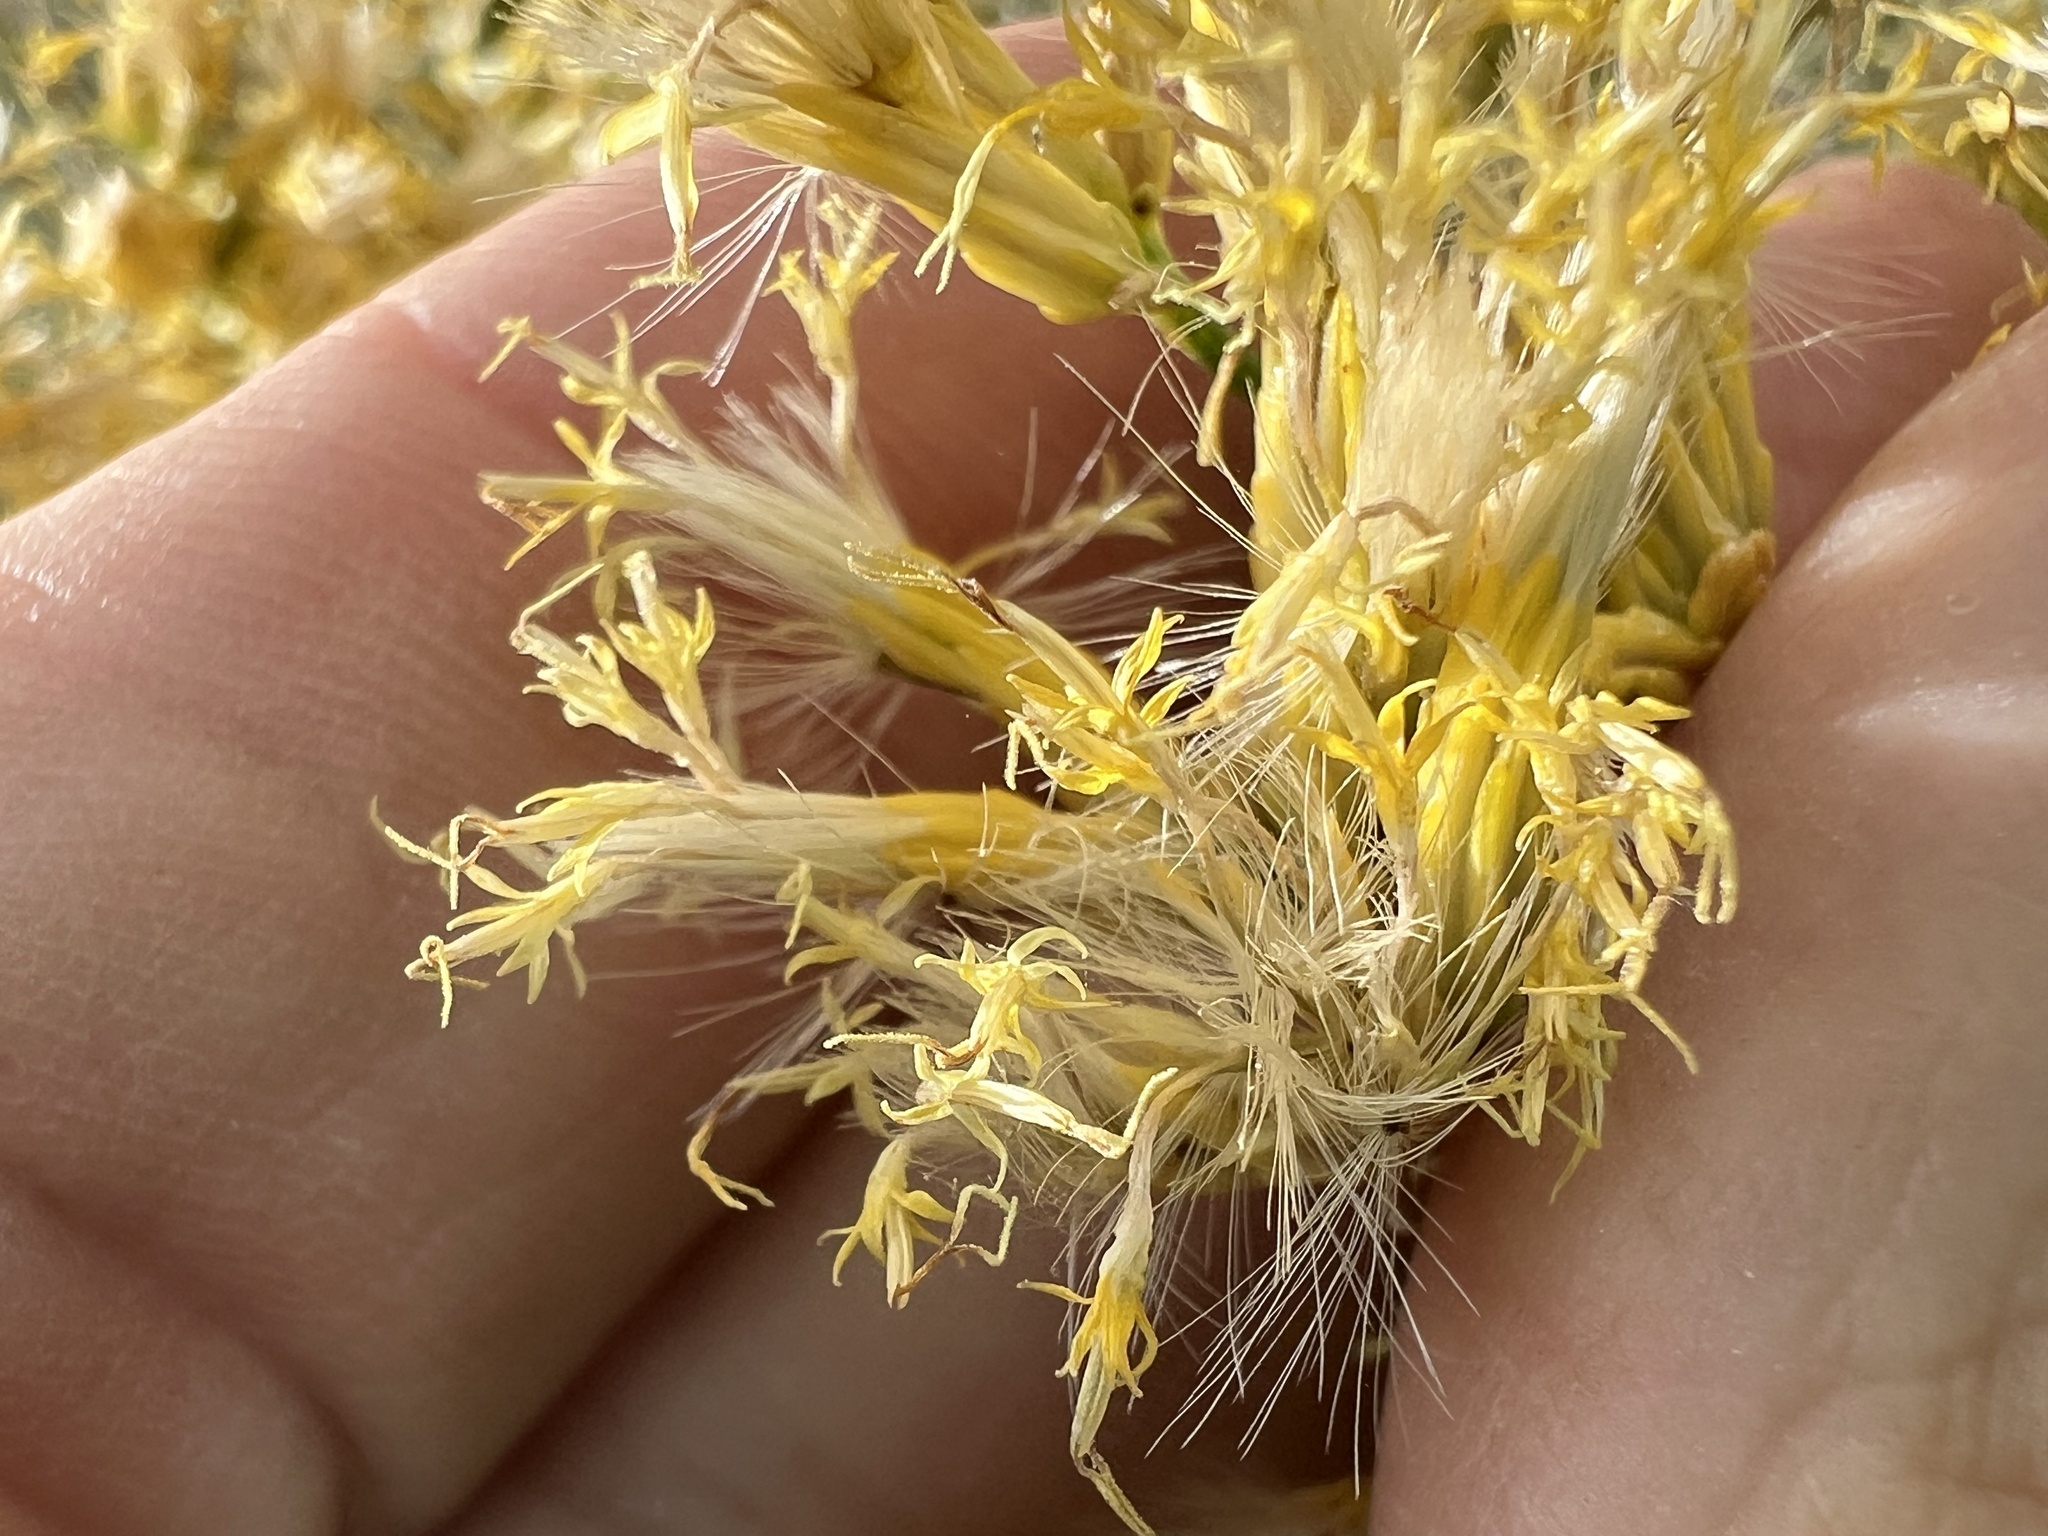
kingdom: Plantae
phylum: Tracheophyta
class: Magnoliopsida
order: Asterales
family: Asteraceae
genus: Ericameria
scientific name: Ericameria nauseosa
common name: Rubber rabbitbrush
